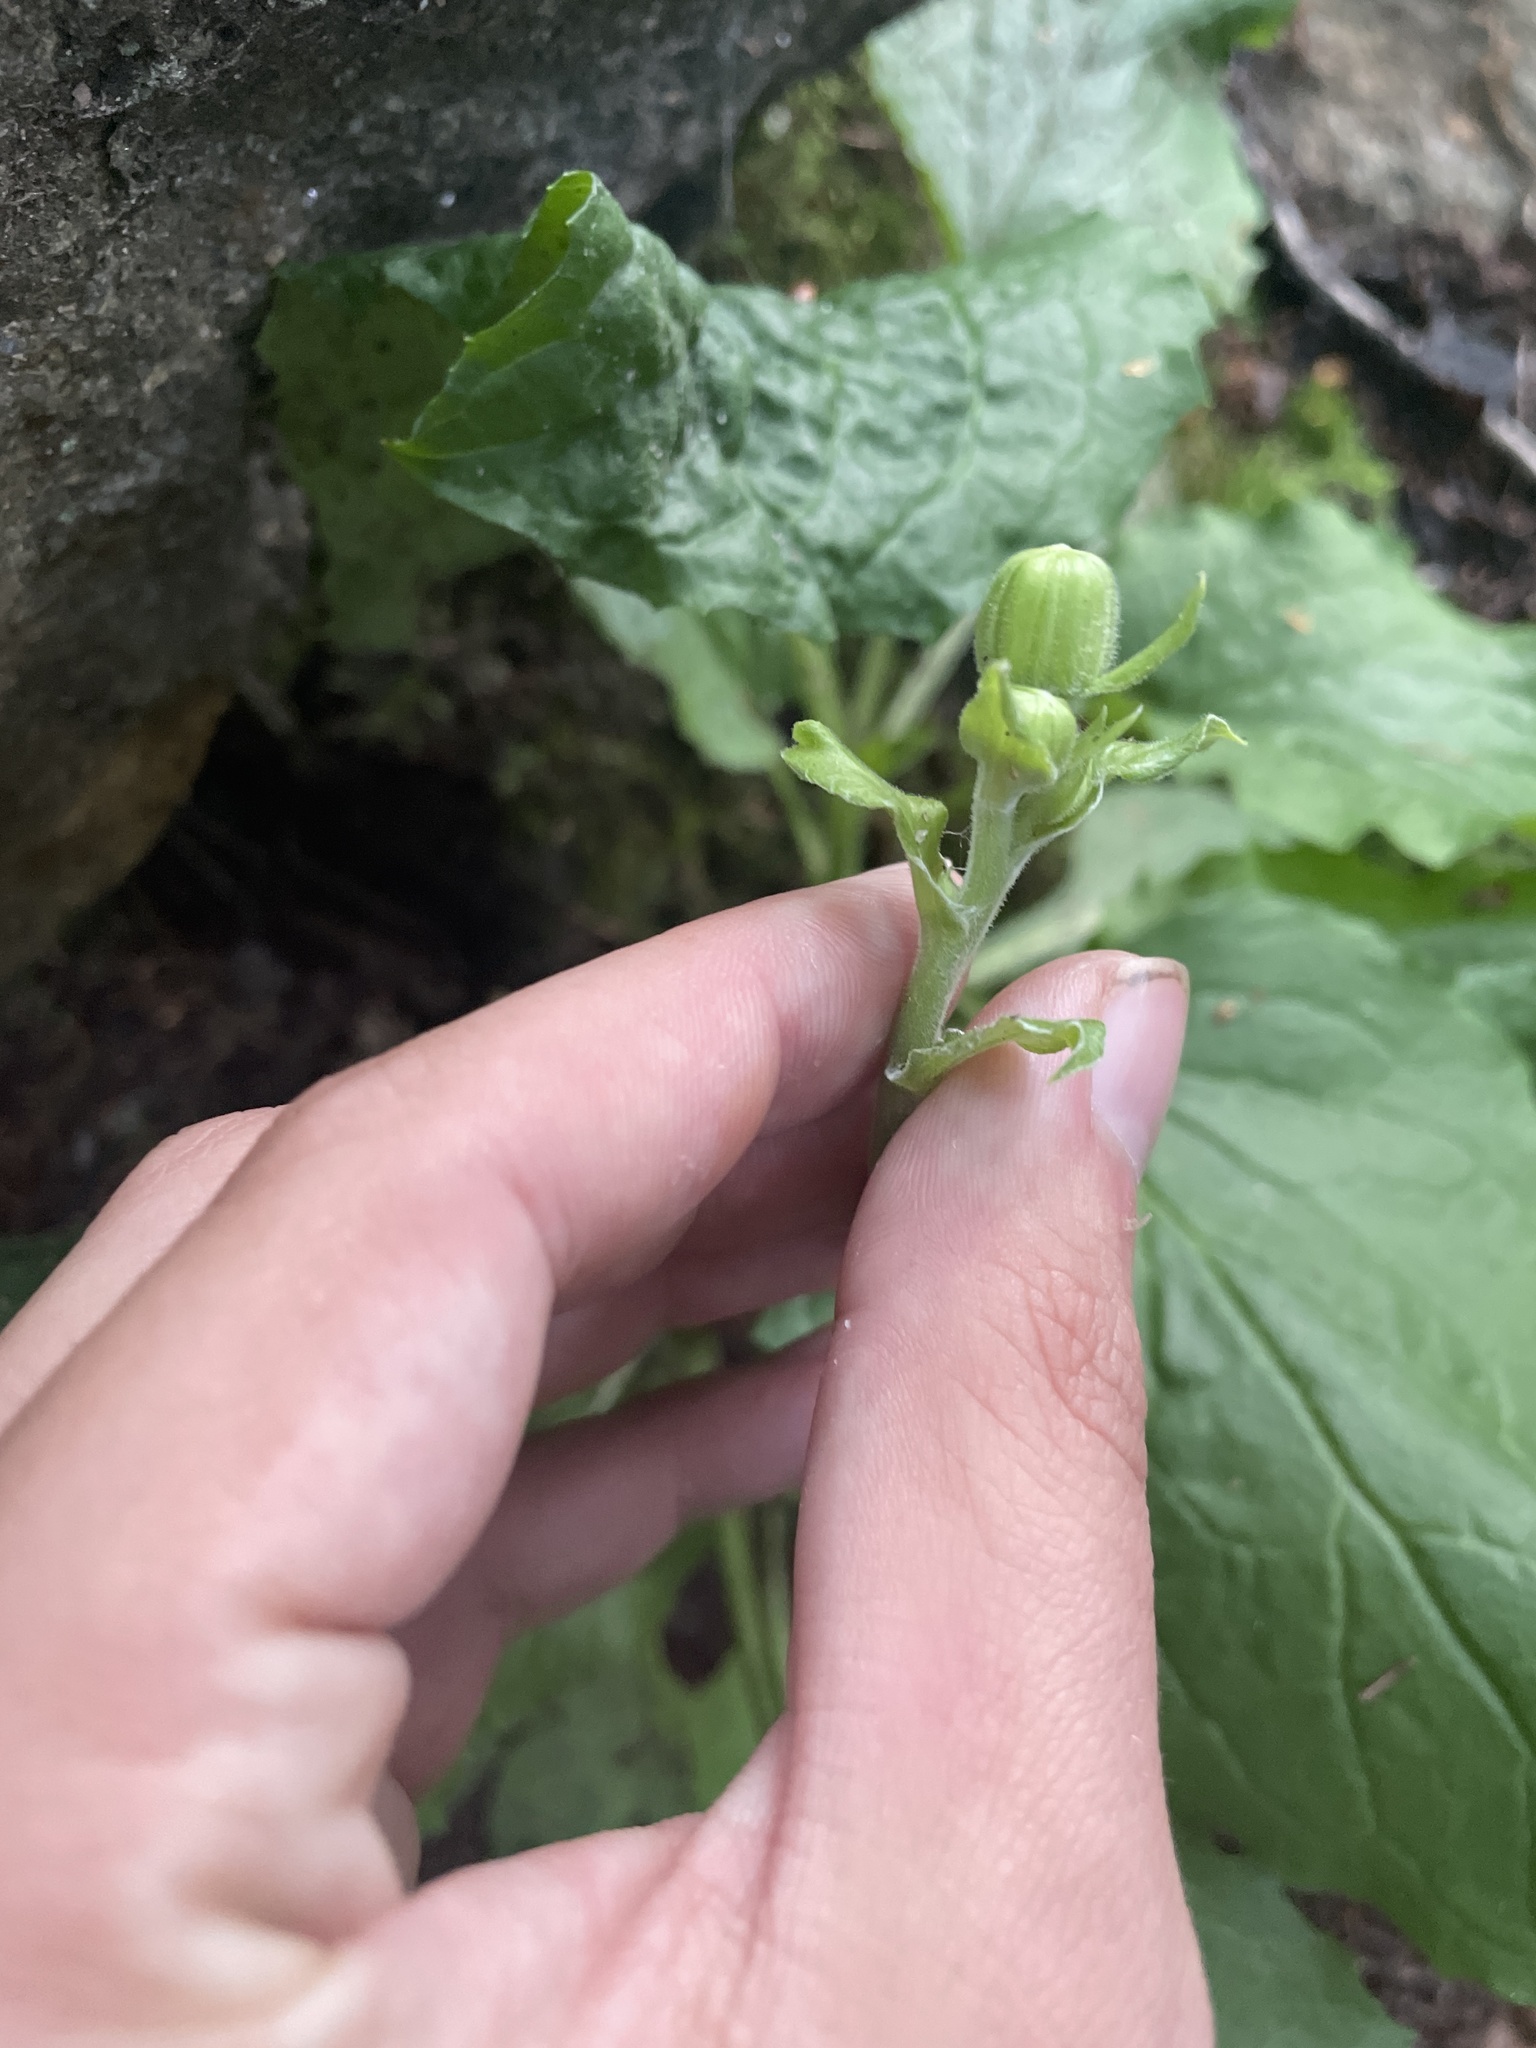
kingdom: Plantae
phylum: Tracheophyta
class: Magnoliopsida
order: Asterales
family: Asteraceae
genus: Rugelia
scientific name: Rugelia nudicaulis
